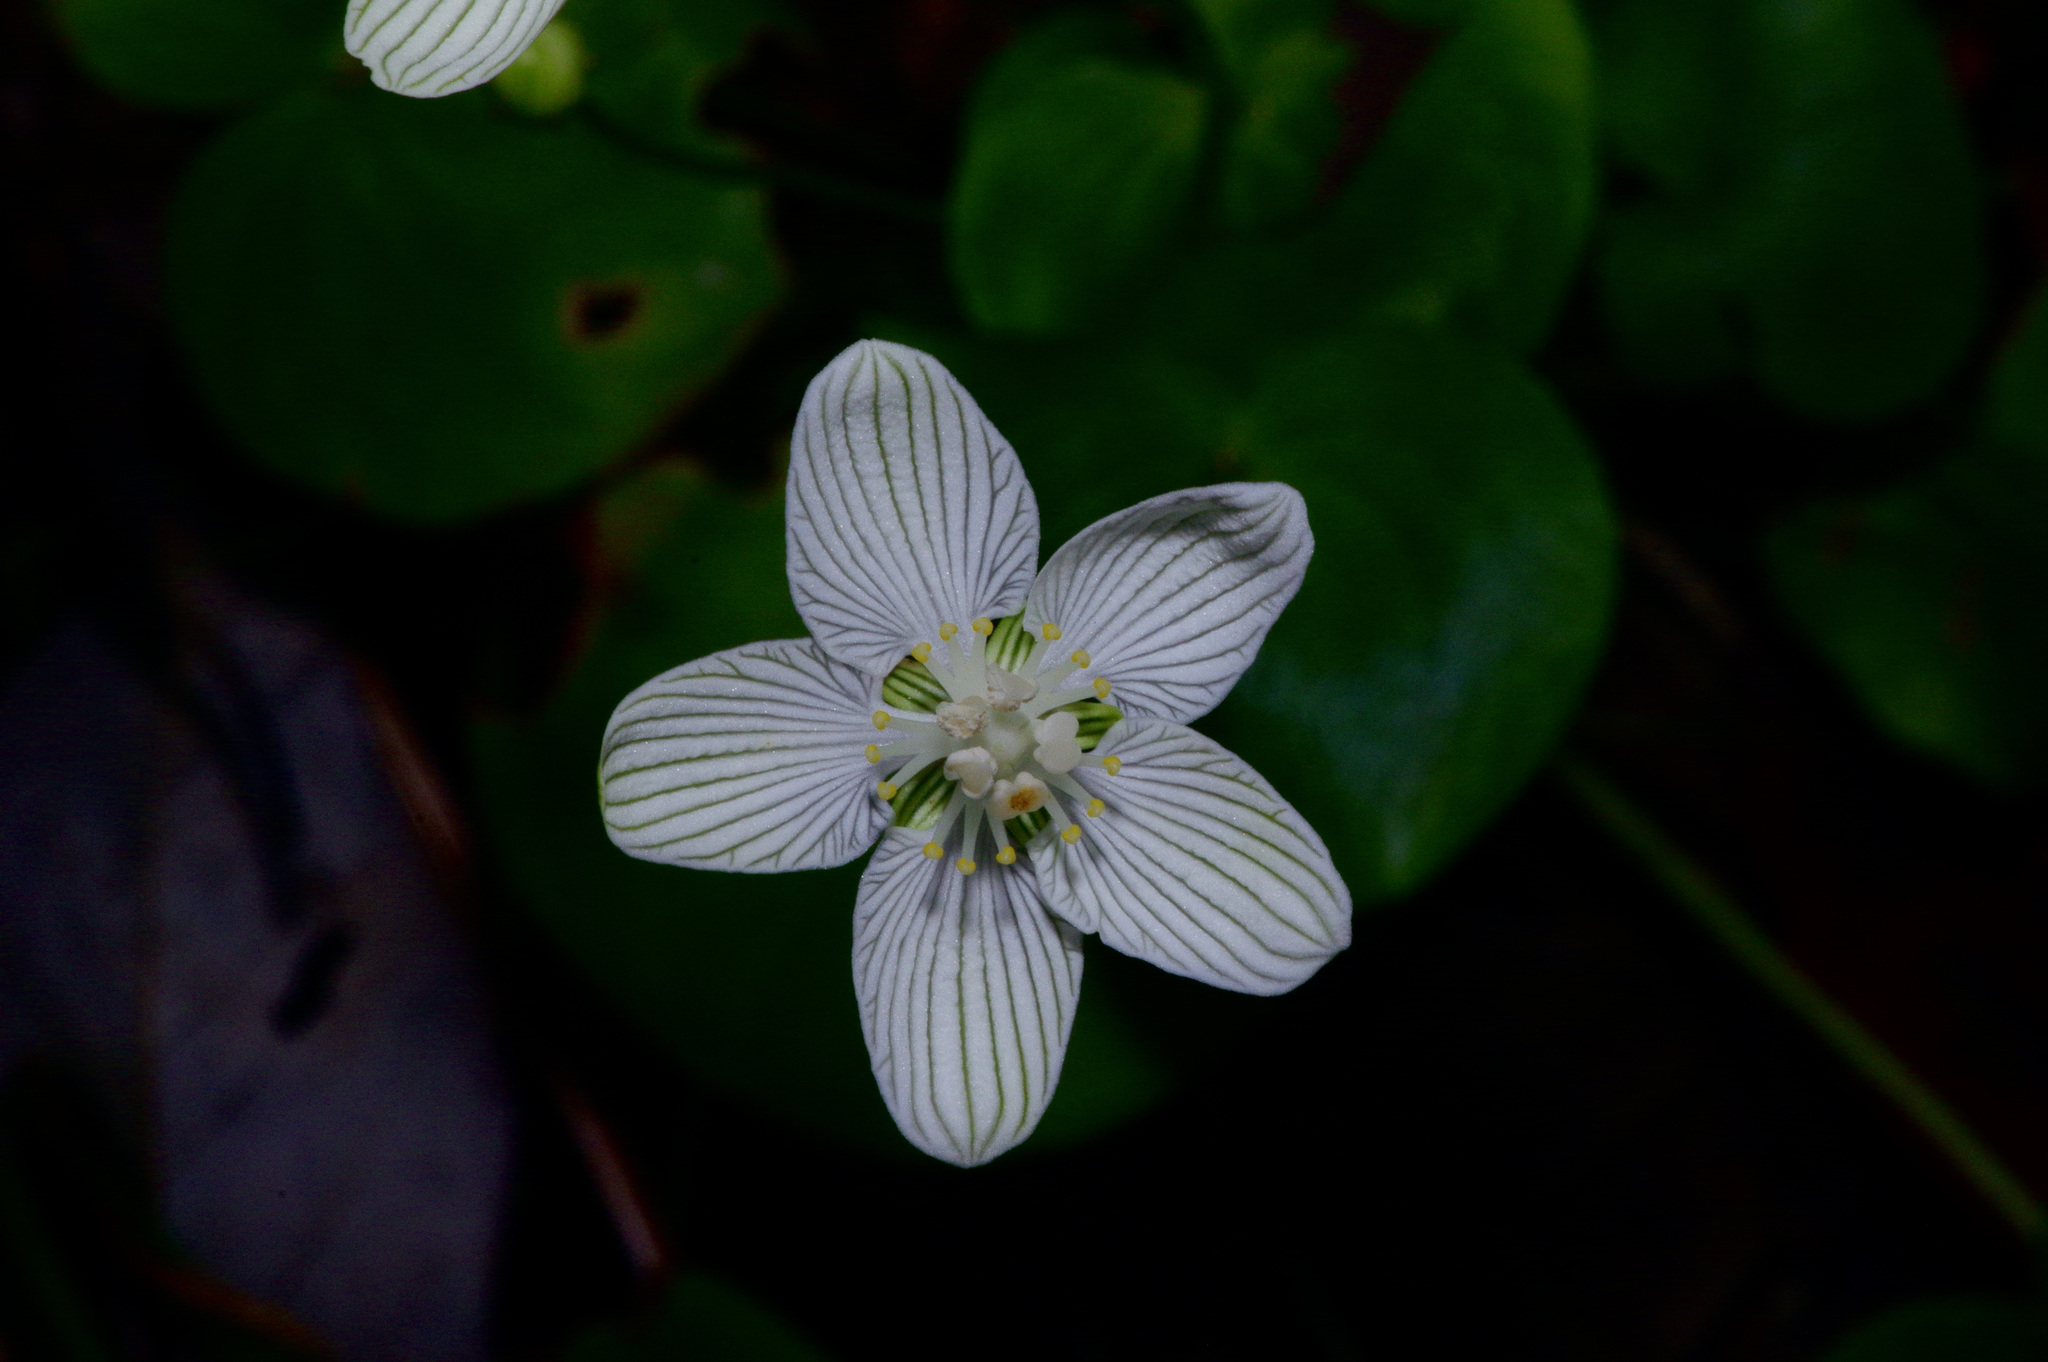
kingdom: Plantae
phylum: Tracheophyta
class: Magnoliopsida
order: Celastrales
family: Parnassiaceae
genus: Parnassia
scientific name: Parnassia asarifolia
